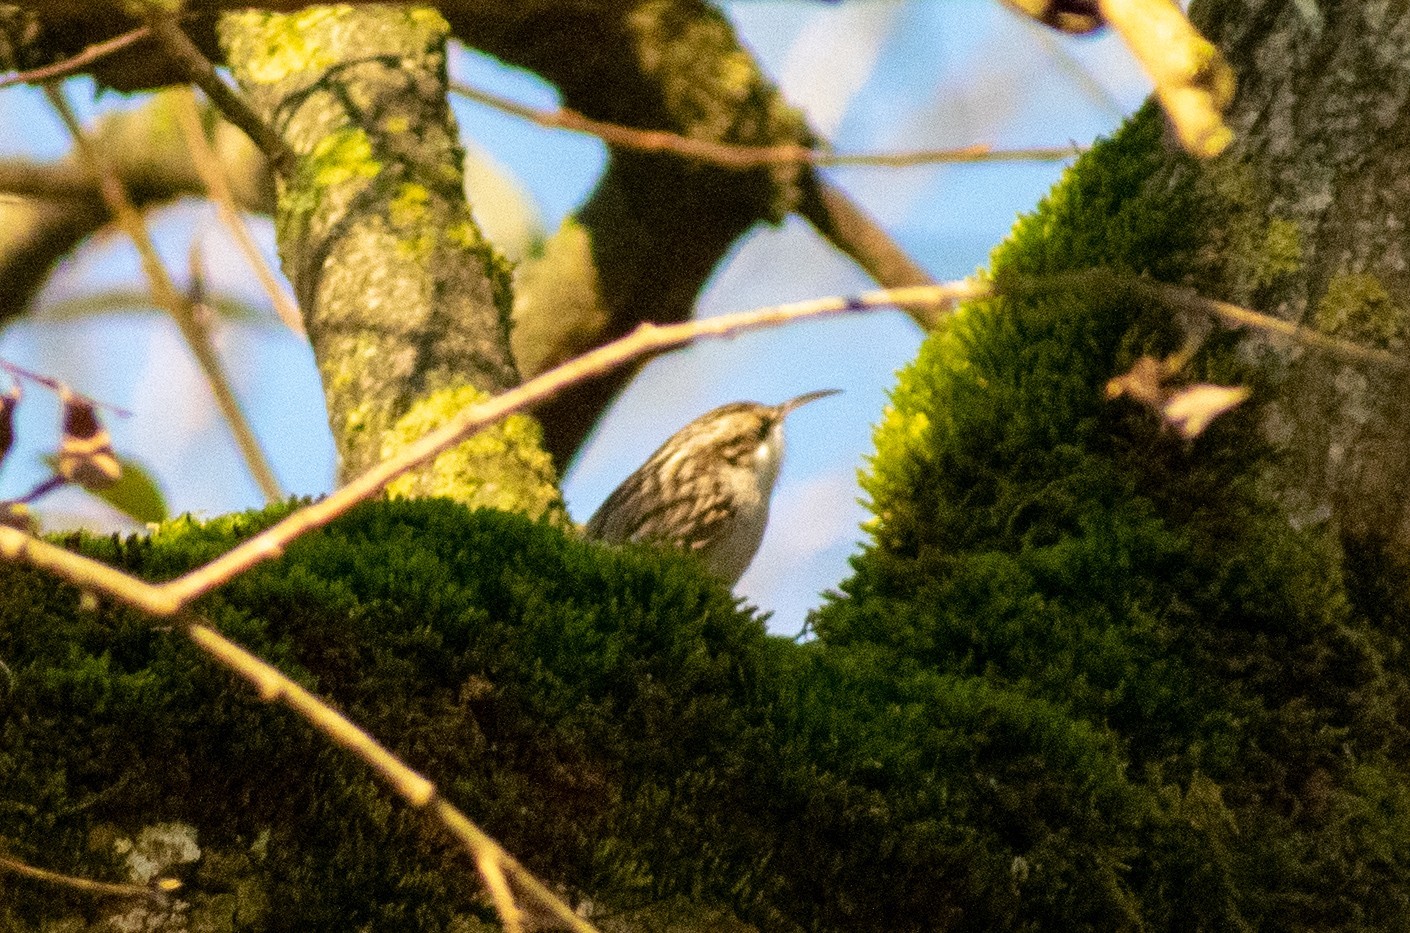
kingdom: Animalia
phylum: Chordata
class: Aves
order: Passeriformes
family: Certhiidae
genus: Certhia
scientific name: Certhia brachydactyla
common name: Short-toed treecreeper
